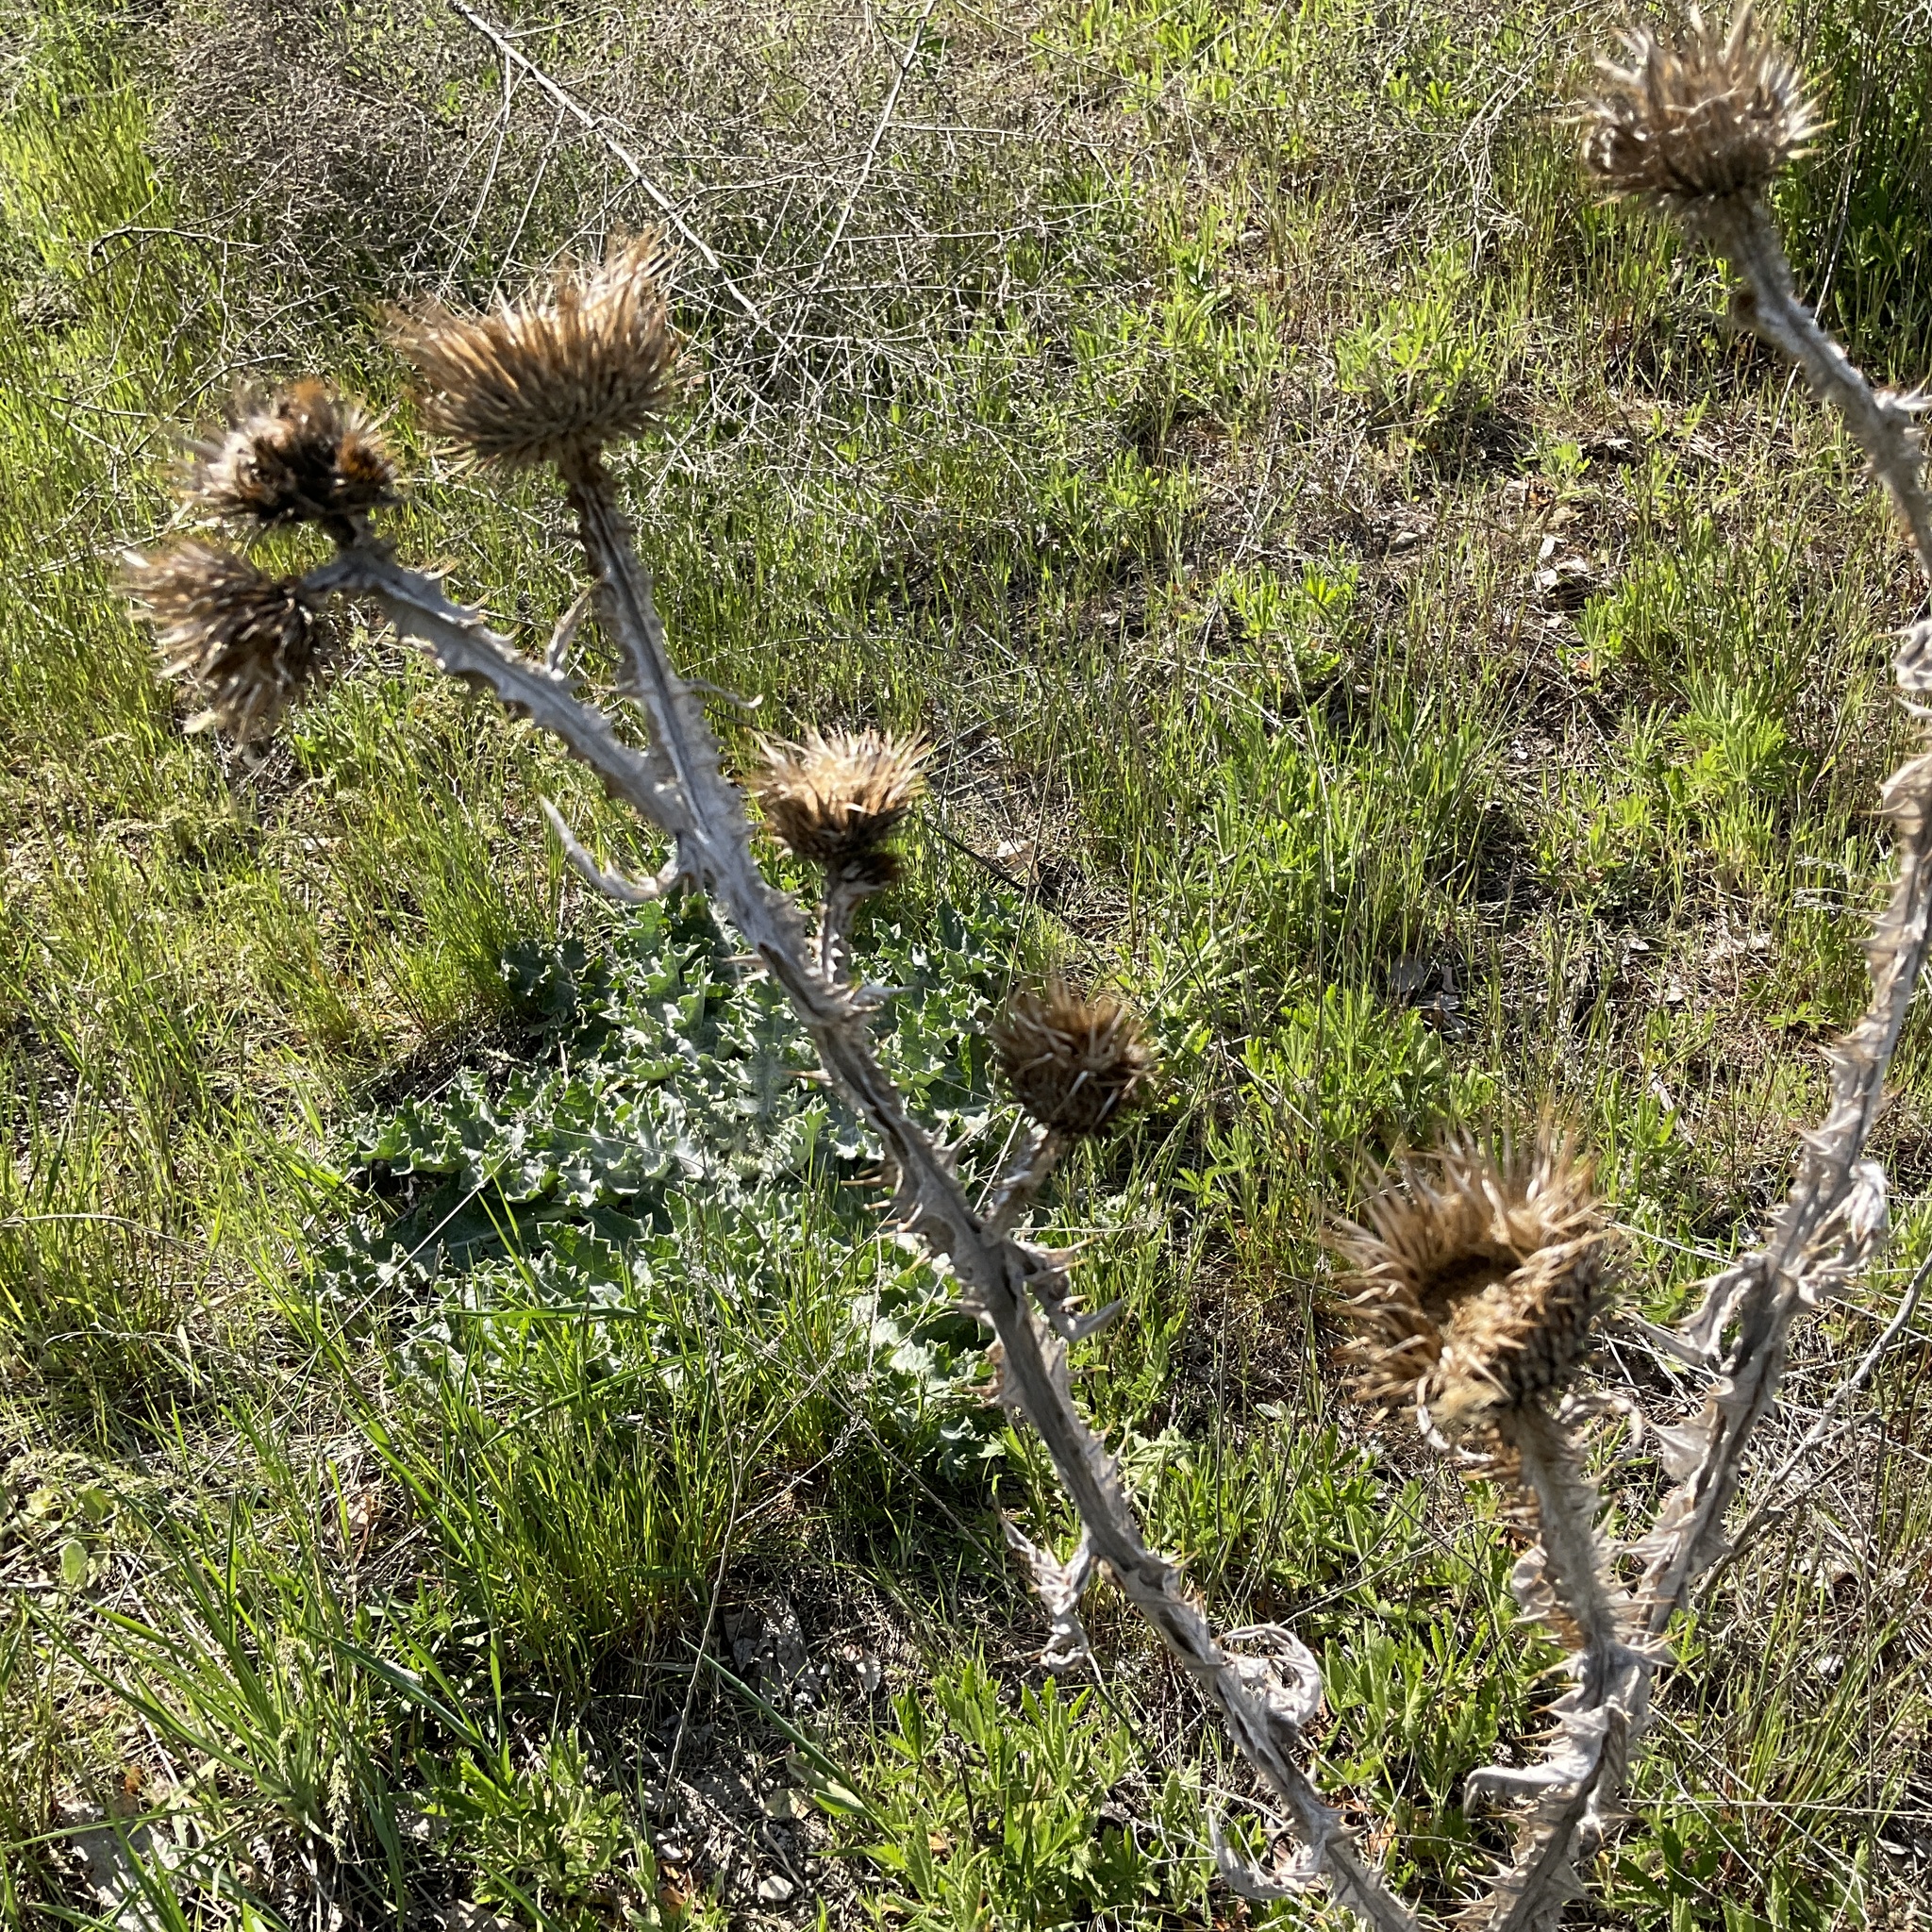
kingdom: Plantae
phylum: Tracheophyta
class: Magnoliopsida
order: Asterales
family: Asteraceae
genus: Onopordum
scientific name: Onopordum acanthium
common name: Scotch thistle
